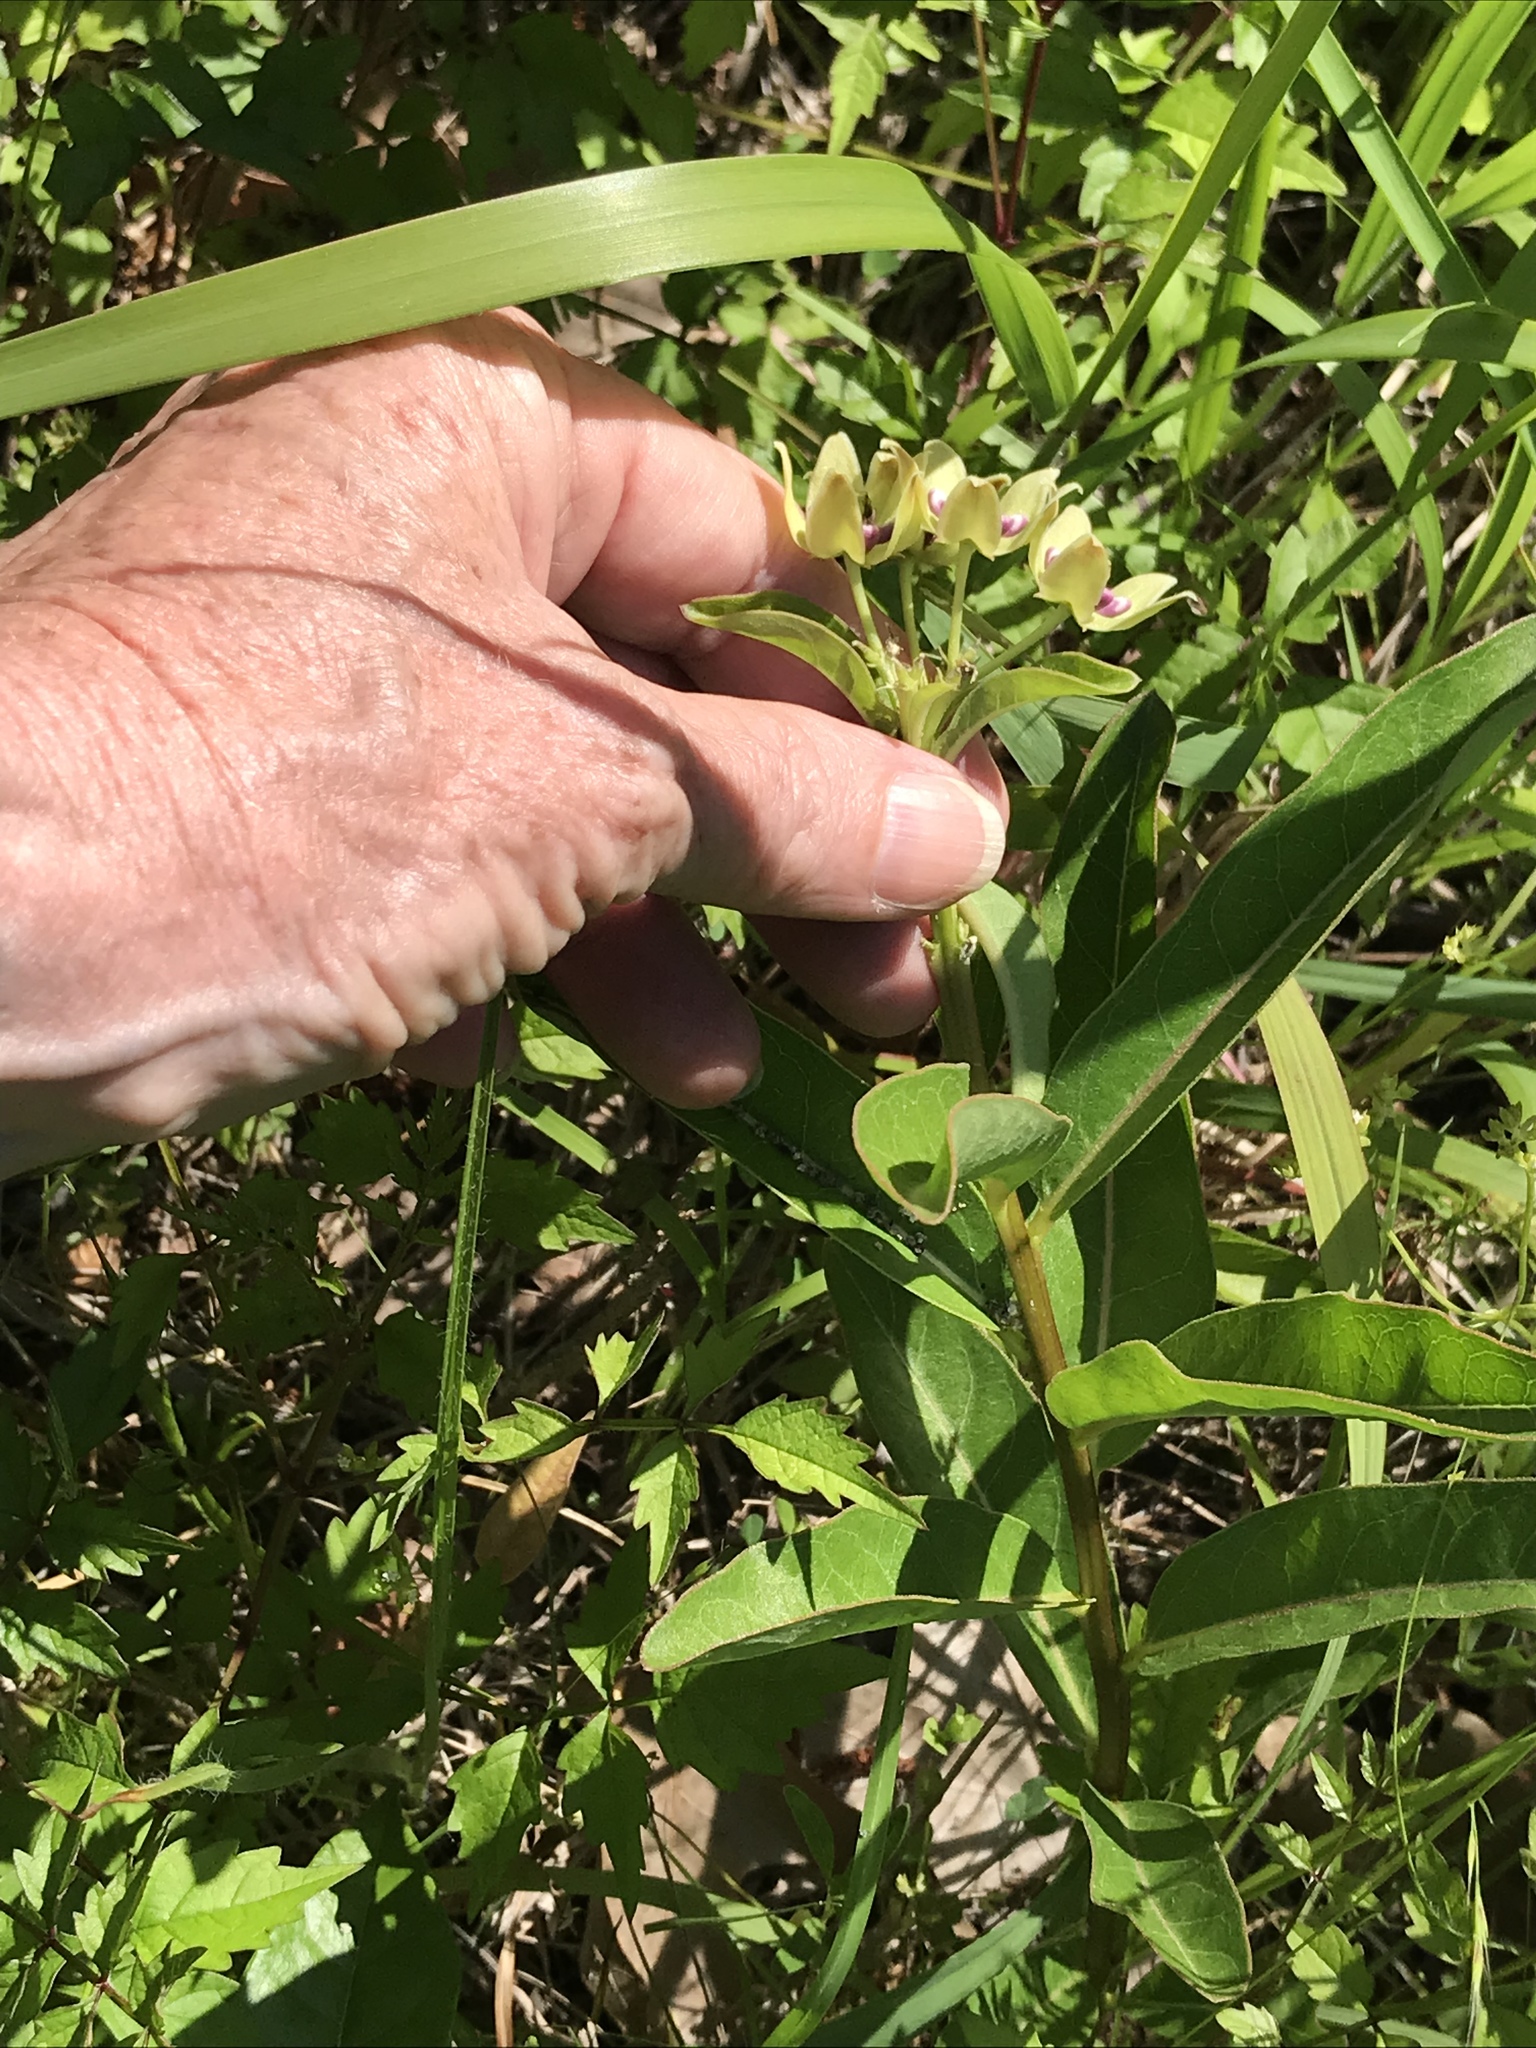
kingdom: Plantae
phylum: Tracheophyta
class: Magnoliopsida
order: Gentianales
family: Apocynaceae
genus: Asclepias
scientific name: Asclepias viridis
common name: Antelope-horns
